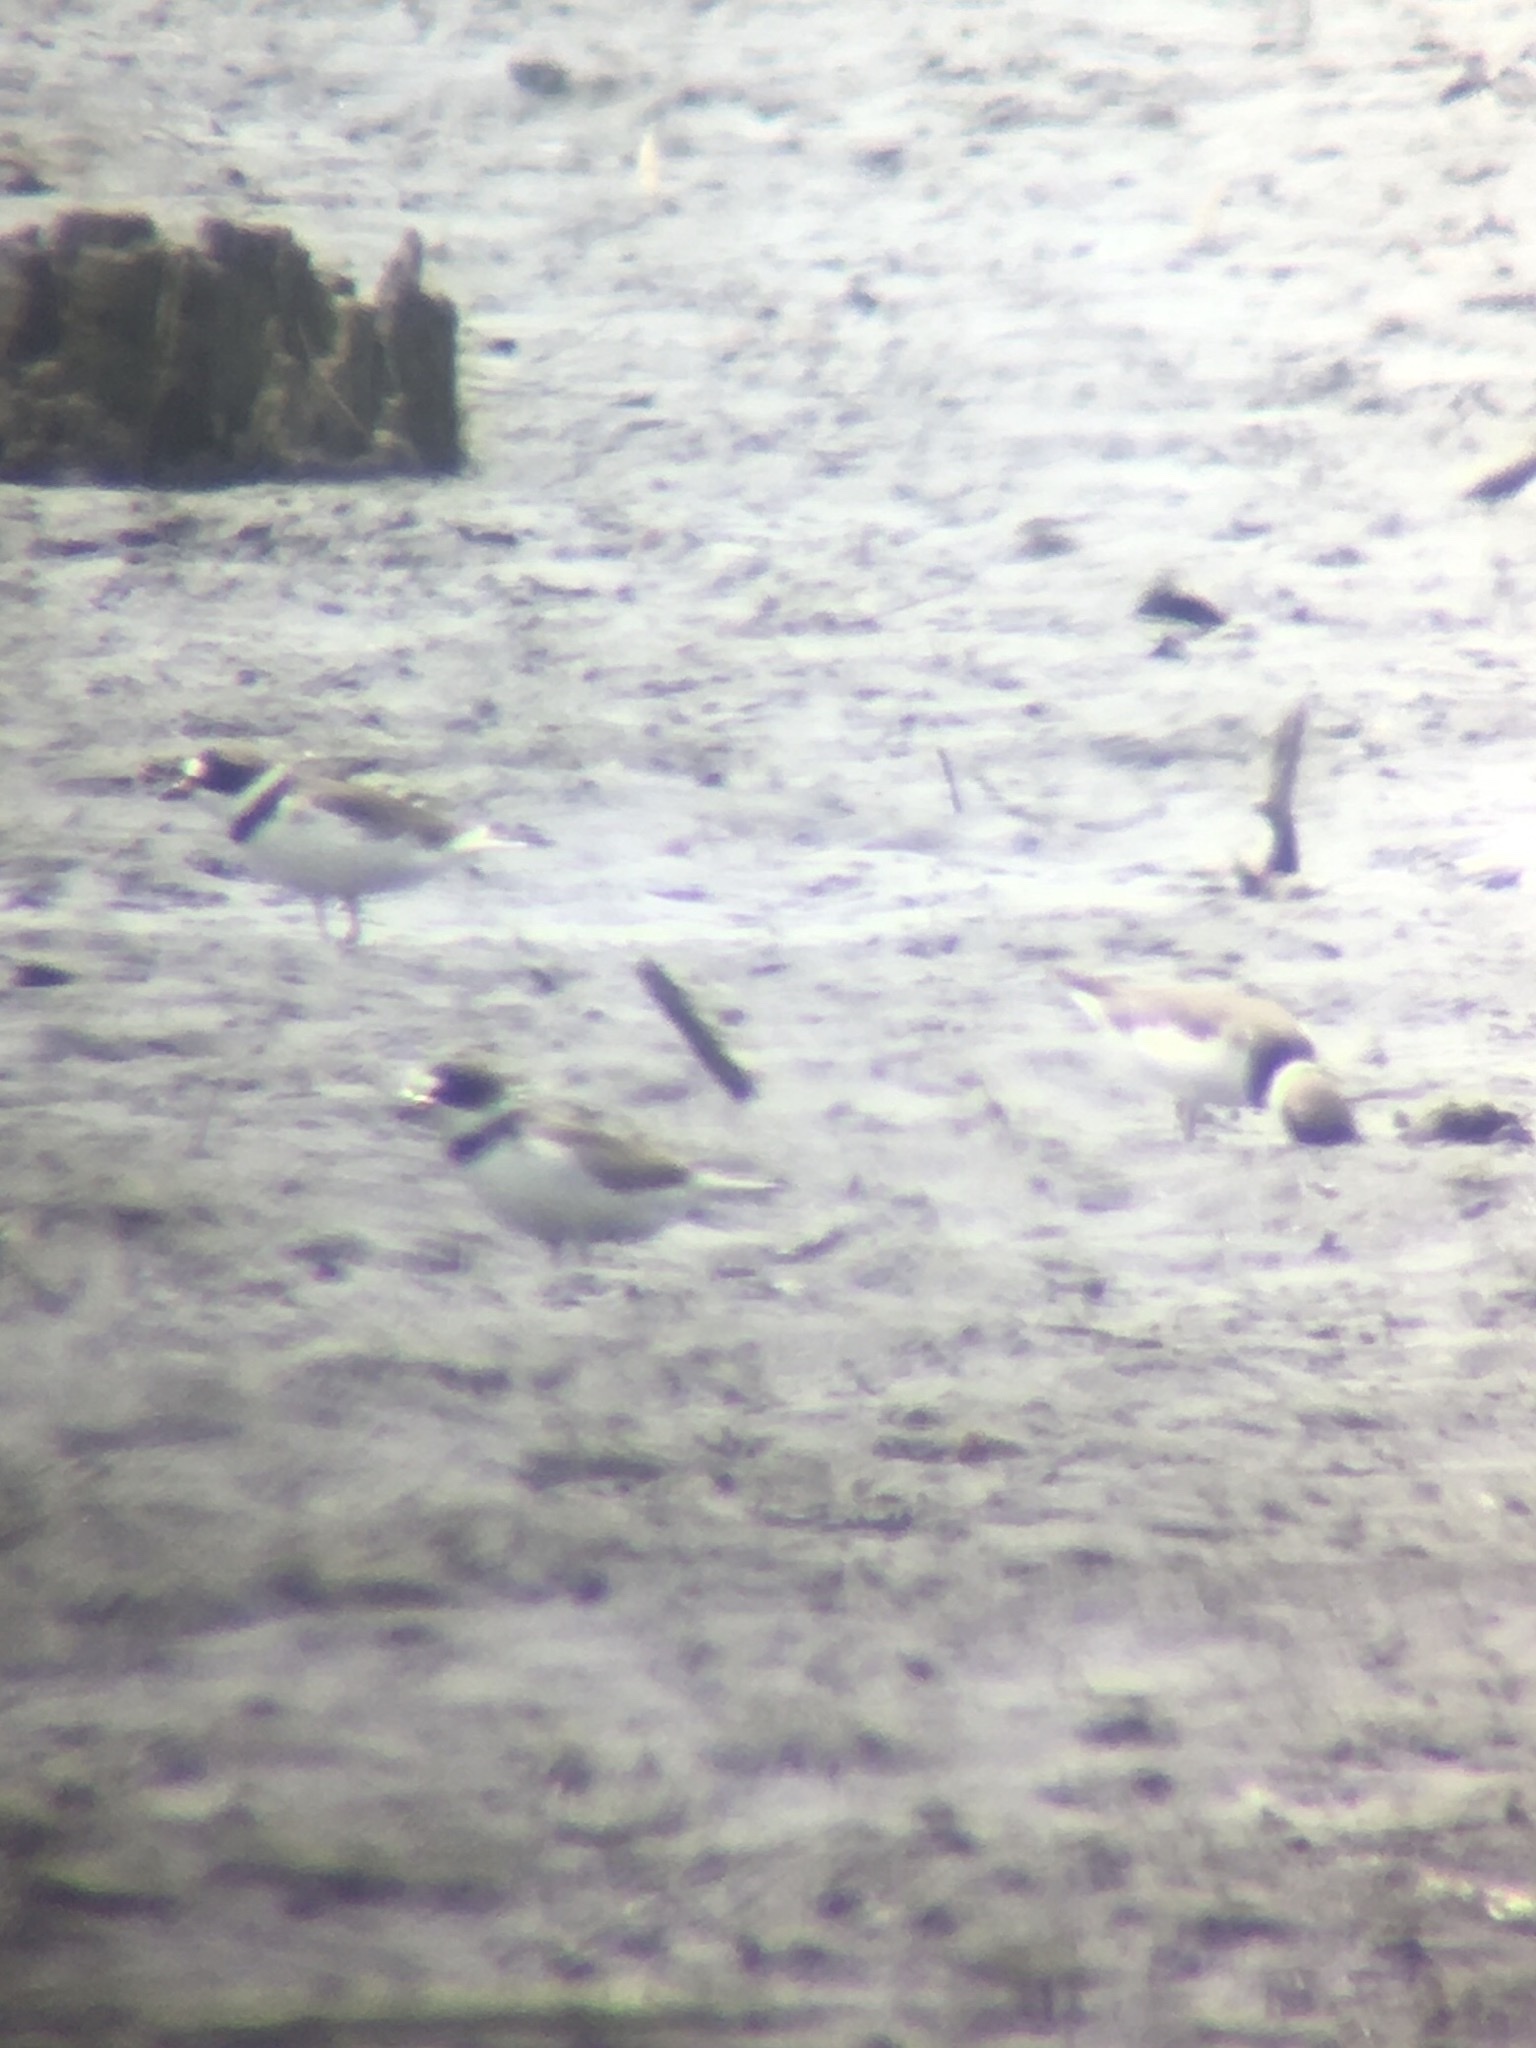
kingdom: Animalia
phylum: Chordata
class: Aves
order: Charadriiformes
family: Charadriidae
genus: Charadrius
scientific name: Charadrius semipalmatus
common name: Semipalmated plover
